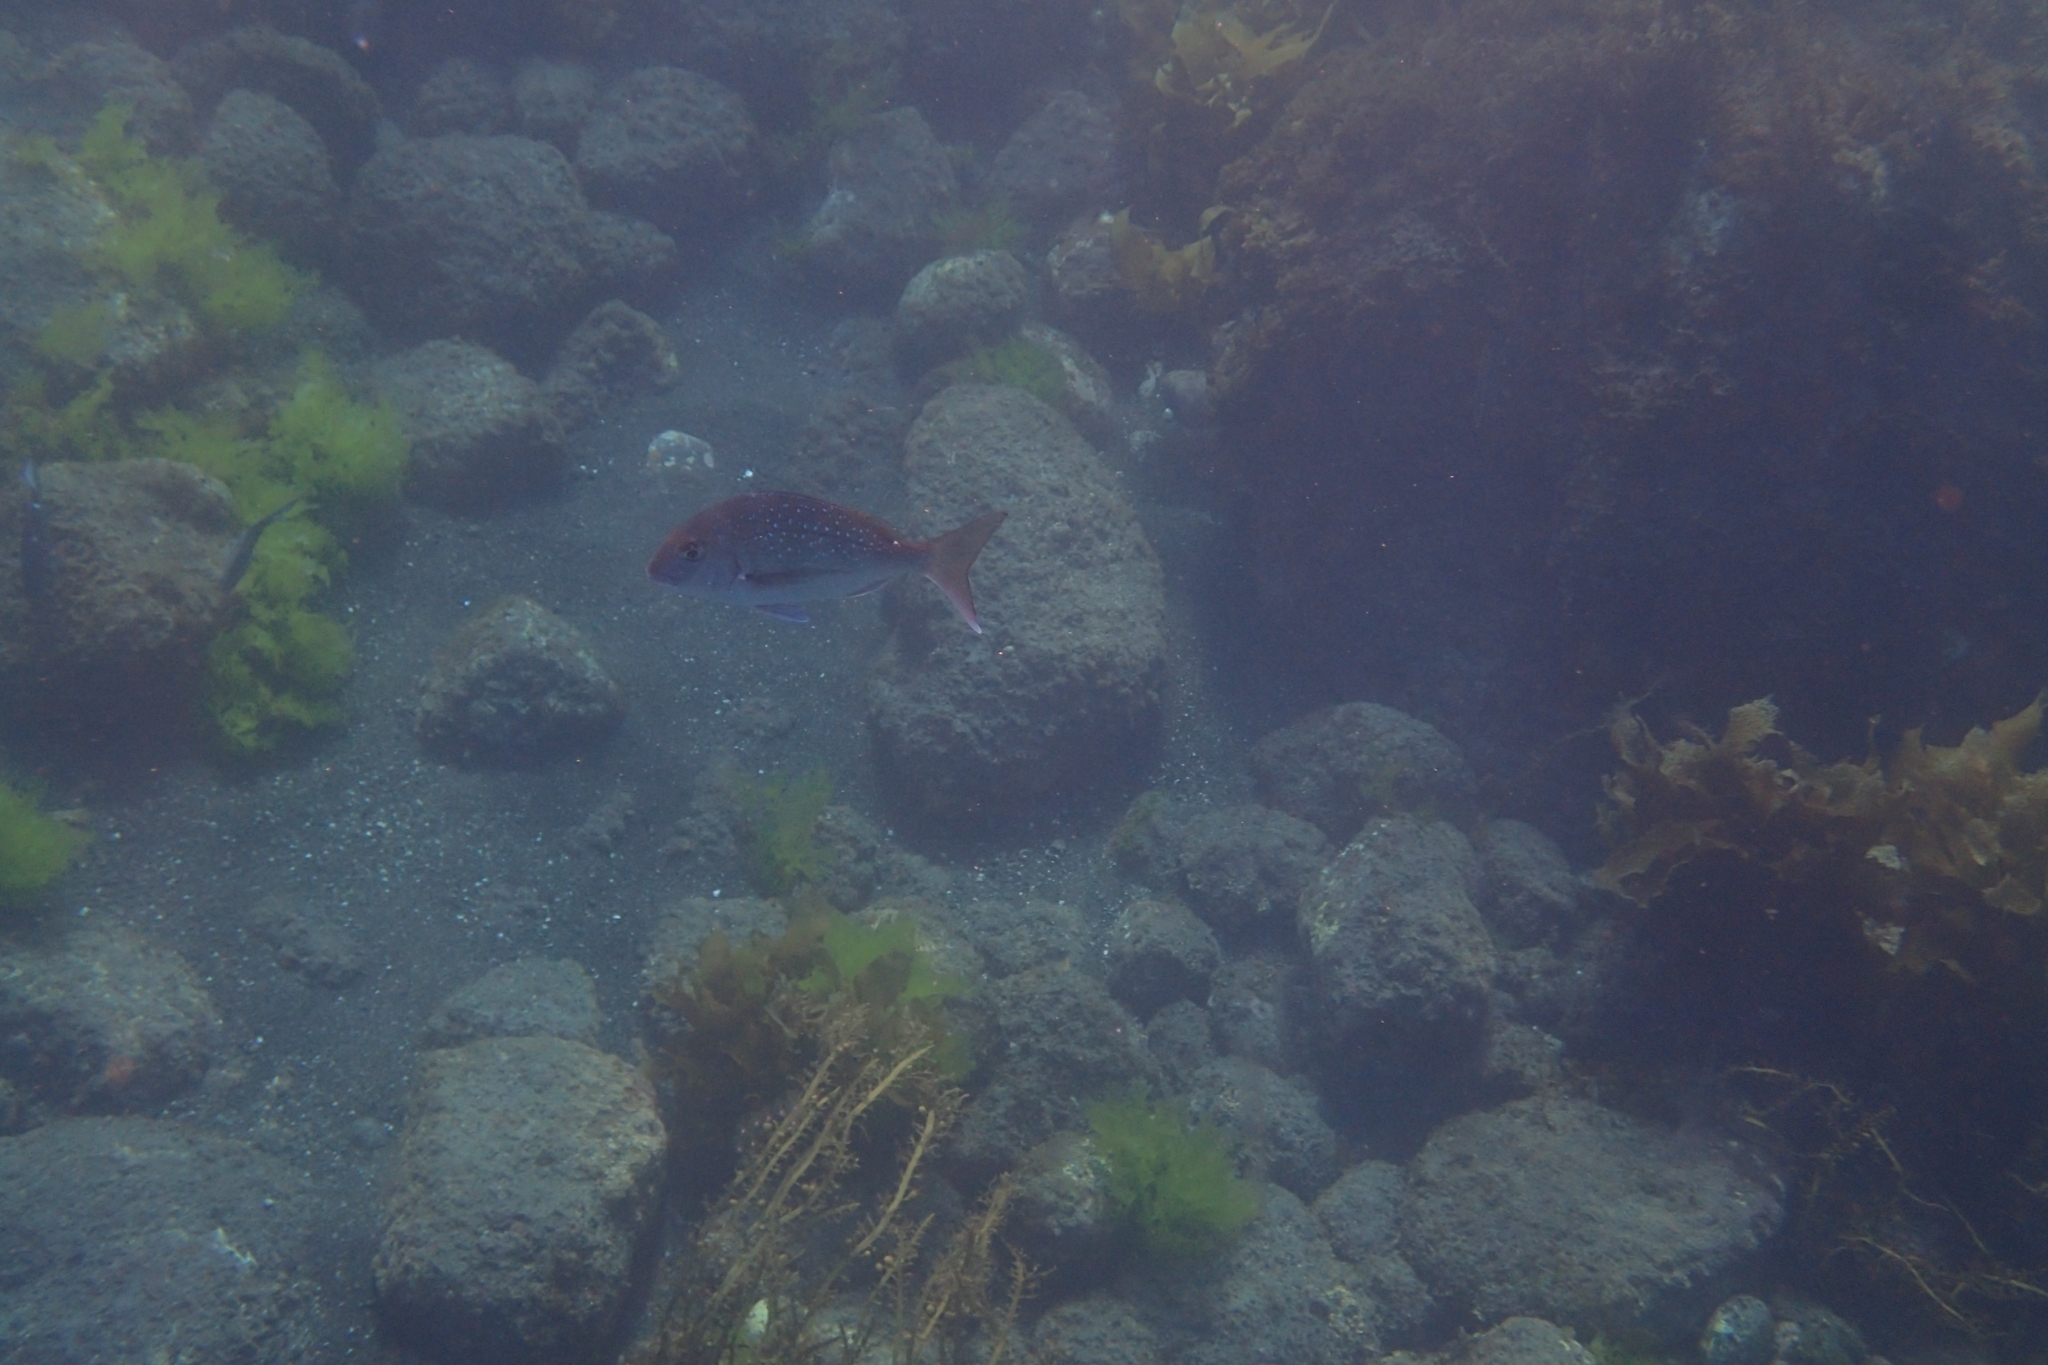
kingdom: Animalia
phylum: Chordata
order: Perciformes
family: Sparidae
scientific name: Sparidae
